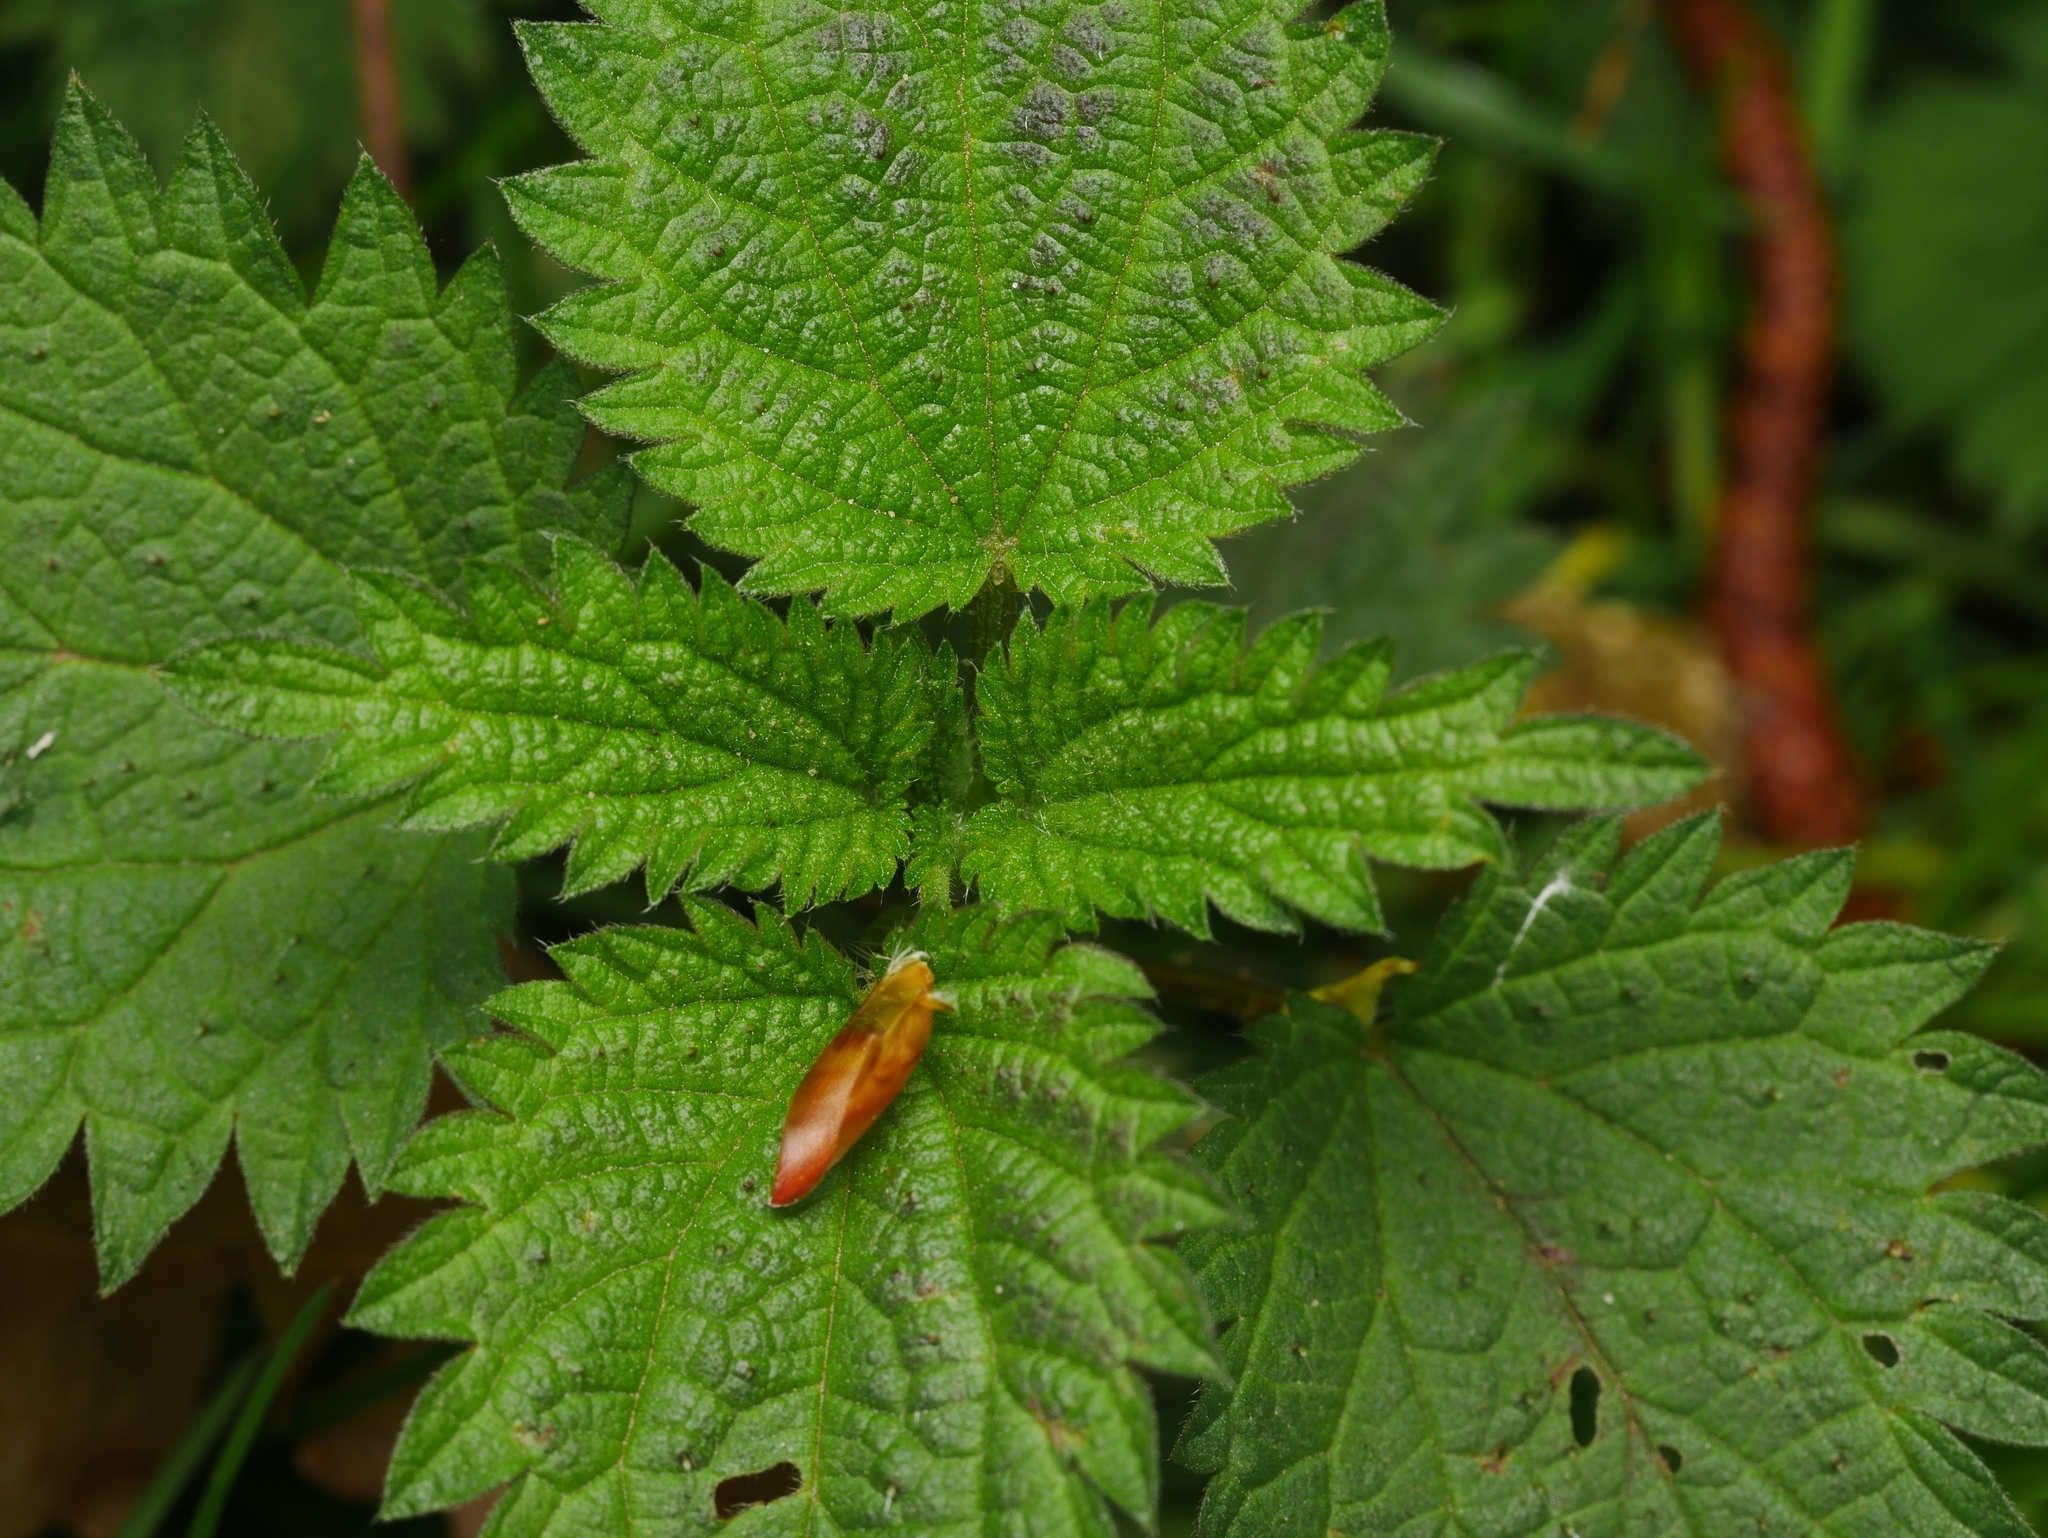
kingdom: Plantae
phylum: Tracheophyta
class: Magnoliopsida
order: Rosales
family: Urticaceae
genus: Urtica
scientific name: Urtica dioica
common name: Common nettle
